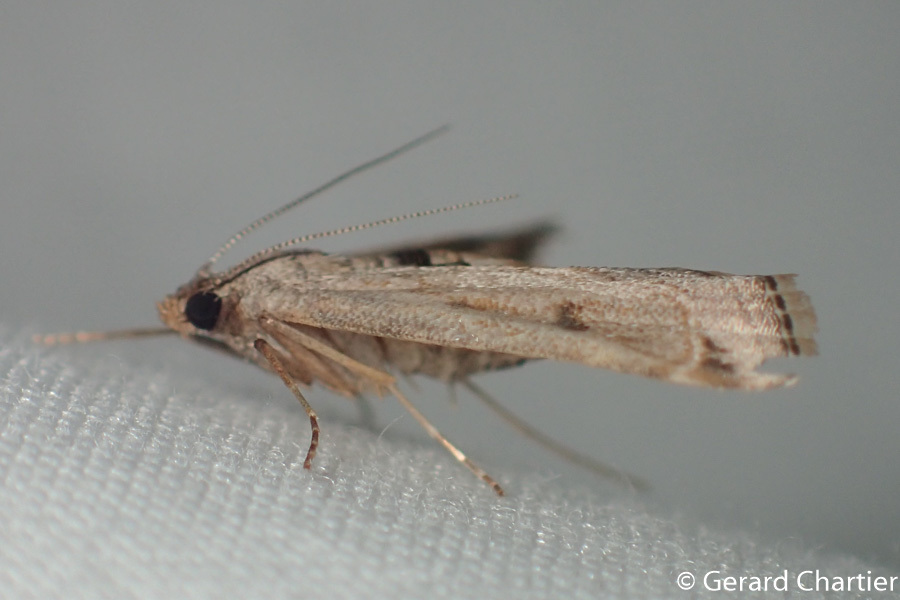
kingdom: Animalia
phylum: Arthropoda
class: Insecta
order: Lepidoptera
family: Crambidae
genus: Parapoynx
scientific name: Parapoynx longialata
